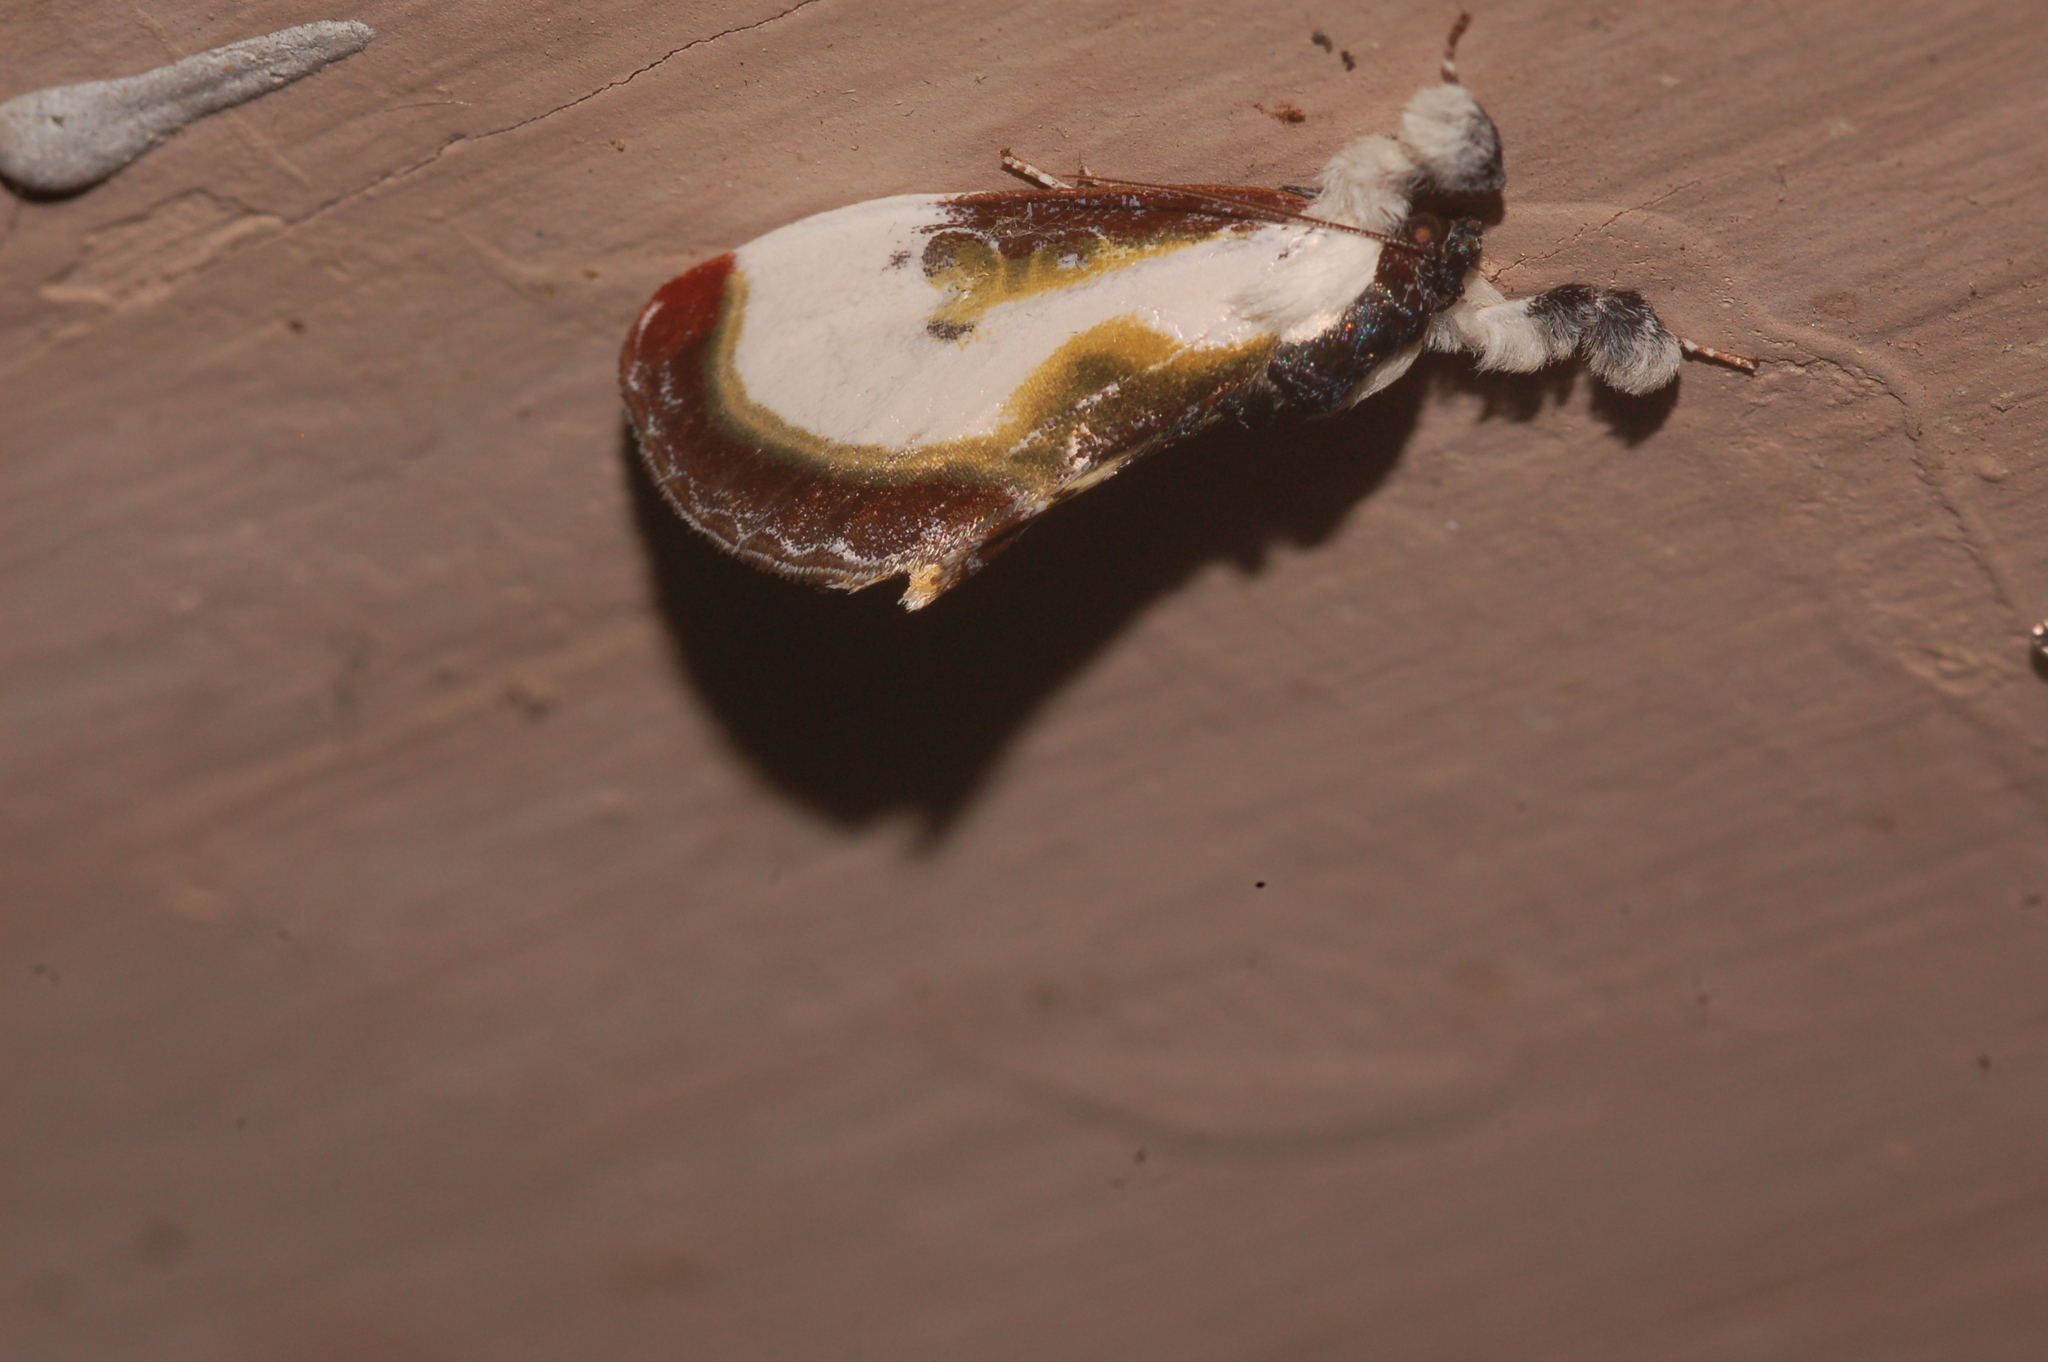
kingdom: Animalia
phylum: Arthropoda
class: Insecta
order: Lepidoptera
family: Noctuidae
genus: Eudryas
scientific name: Eudryas grata
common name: Beautiful wood-nymph
